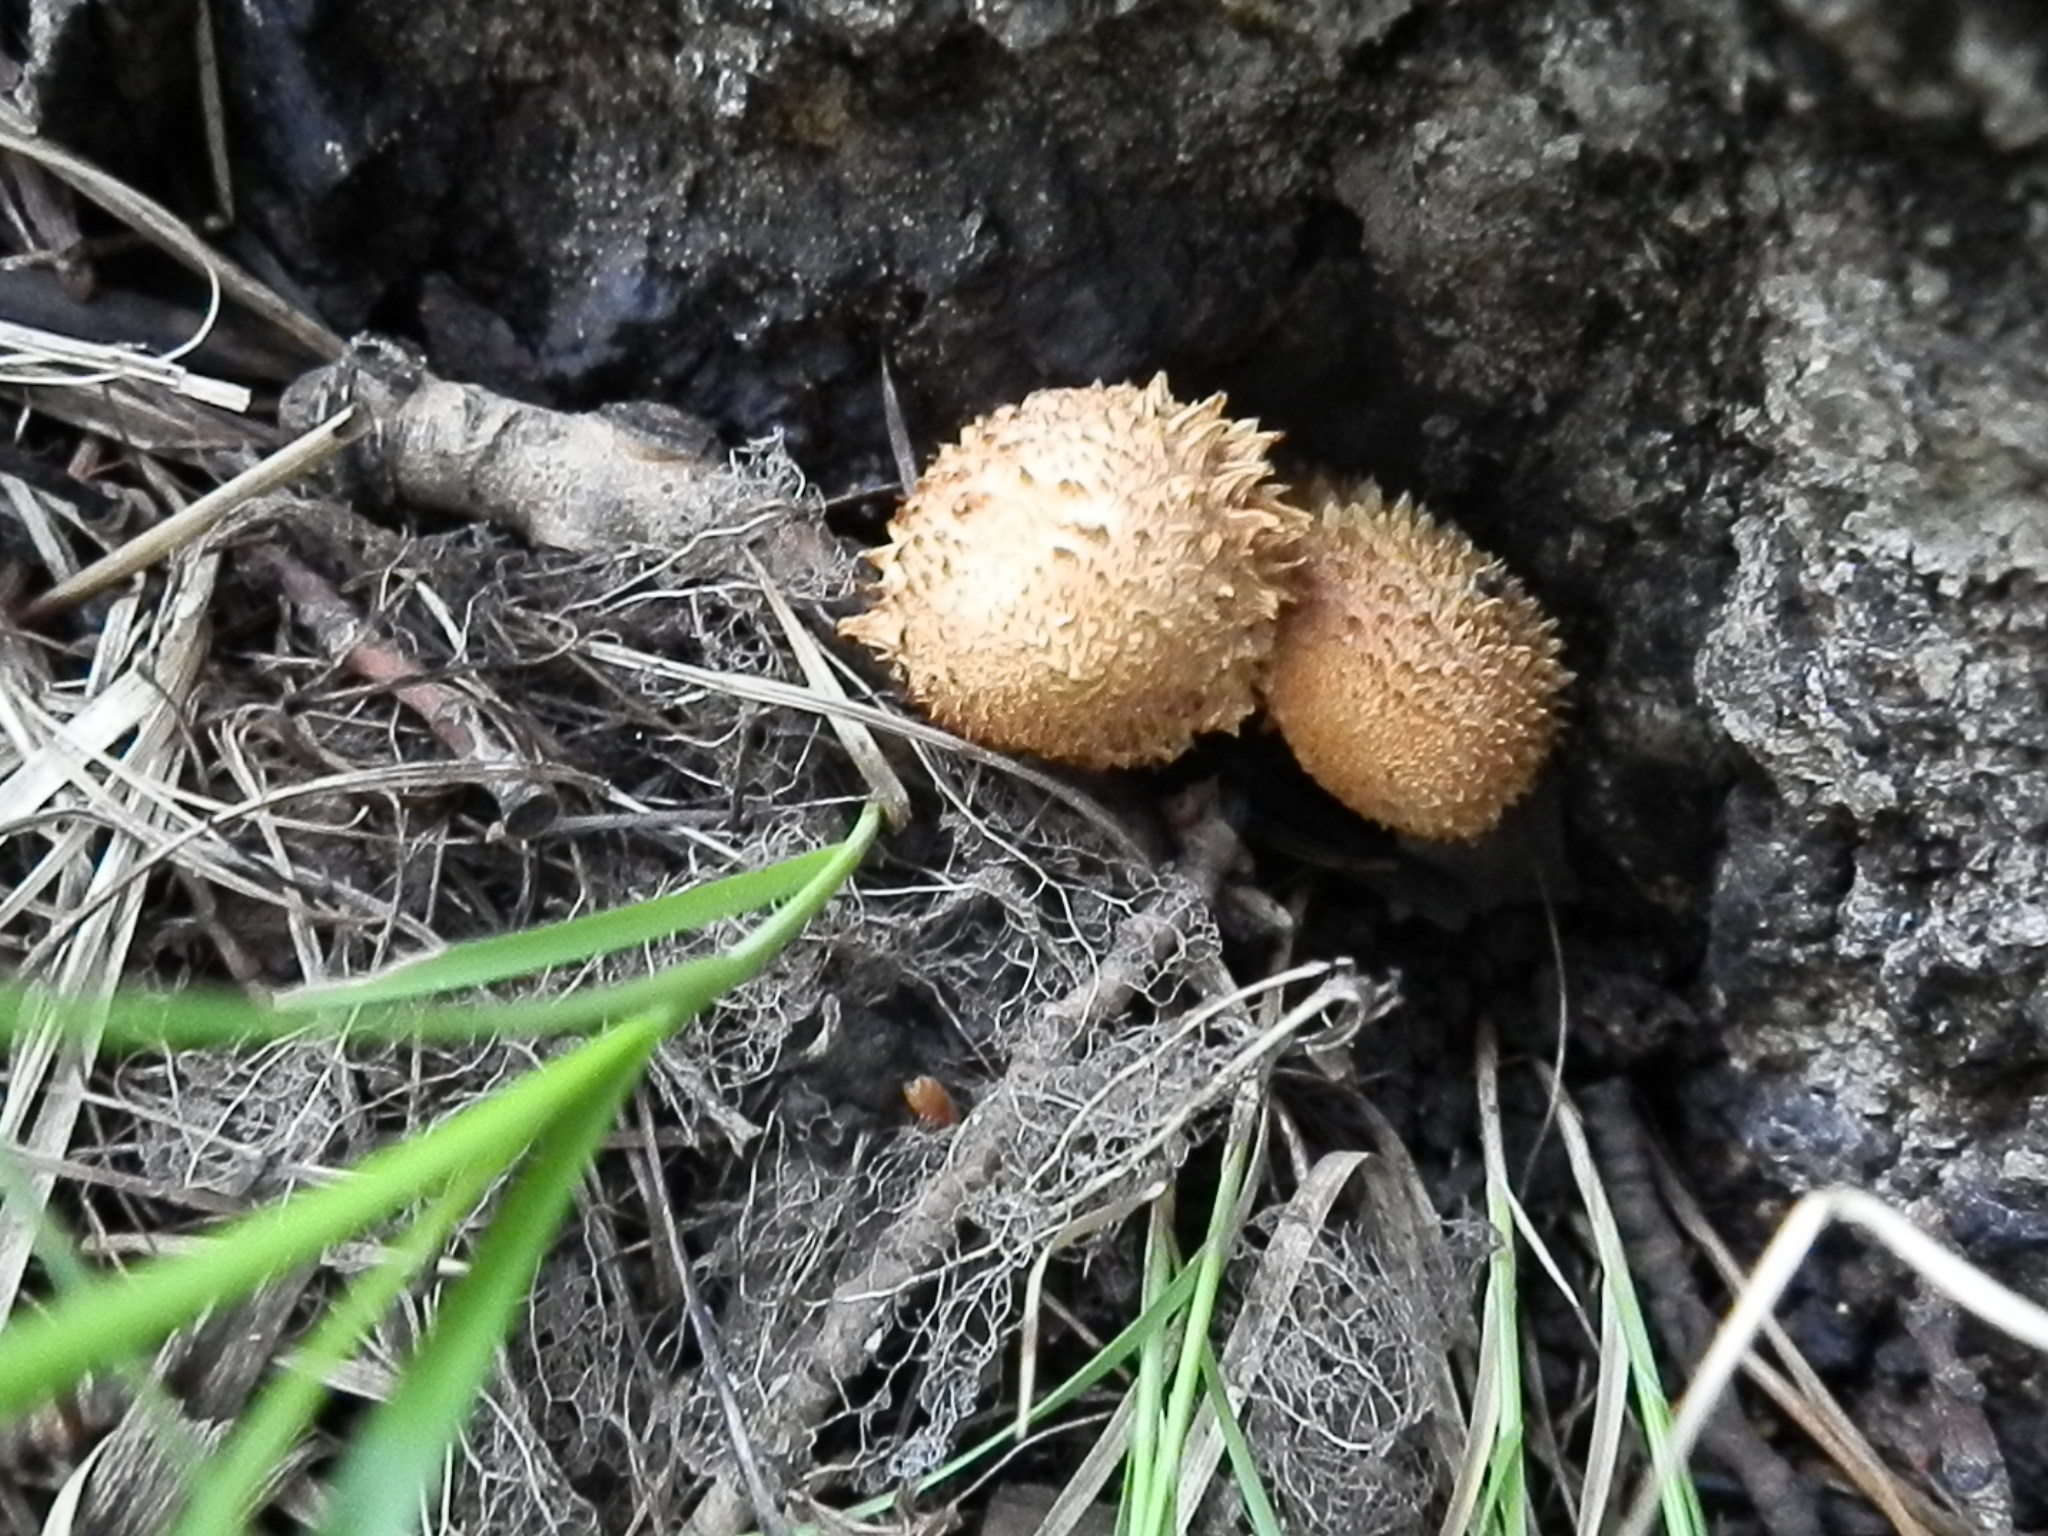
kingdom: Fungi
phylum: Basidiomycota
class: Agaricomycetes
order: Agaricales
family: Strophariaceae
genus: Pholiota
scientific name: Pholiota squarrosa
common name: Shaggy pholiota
